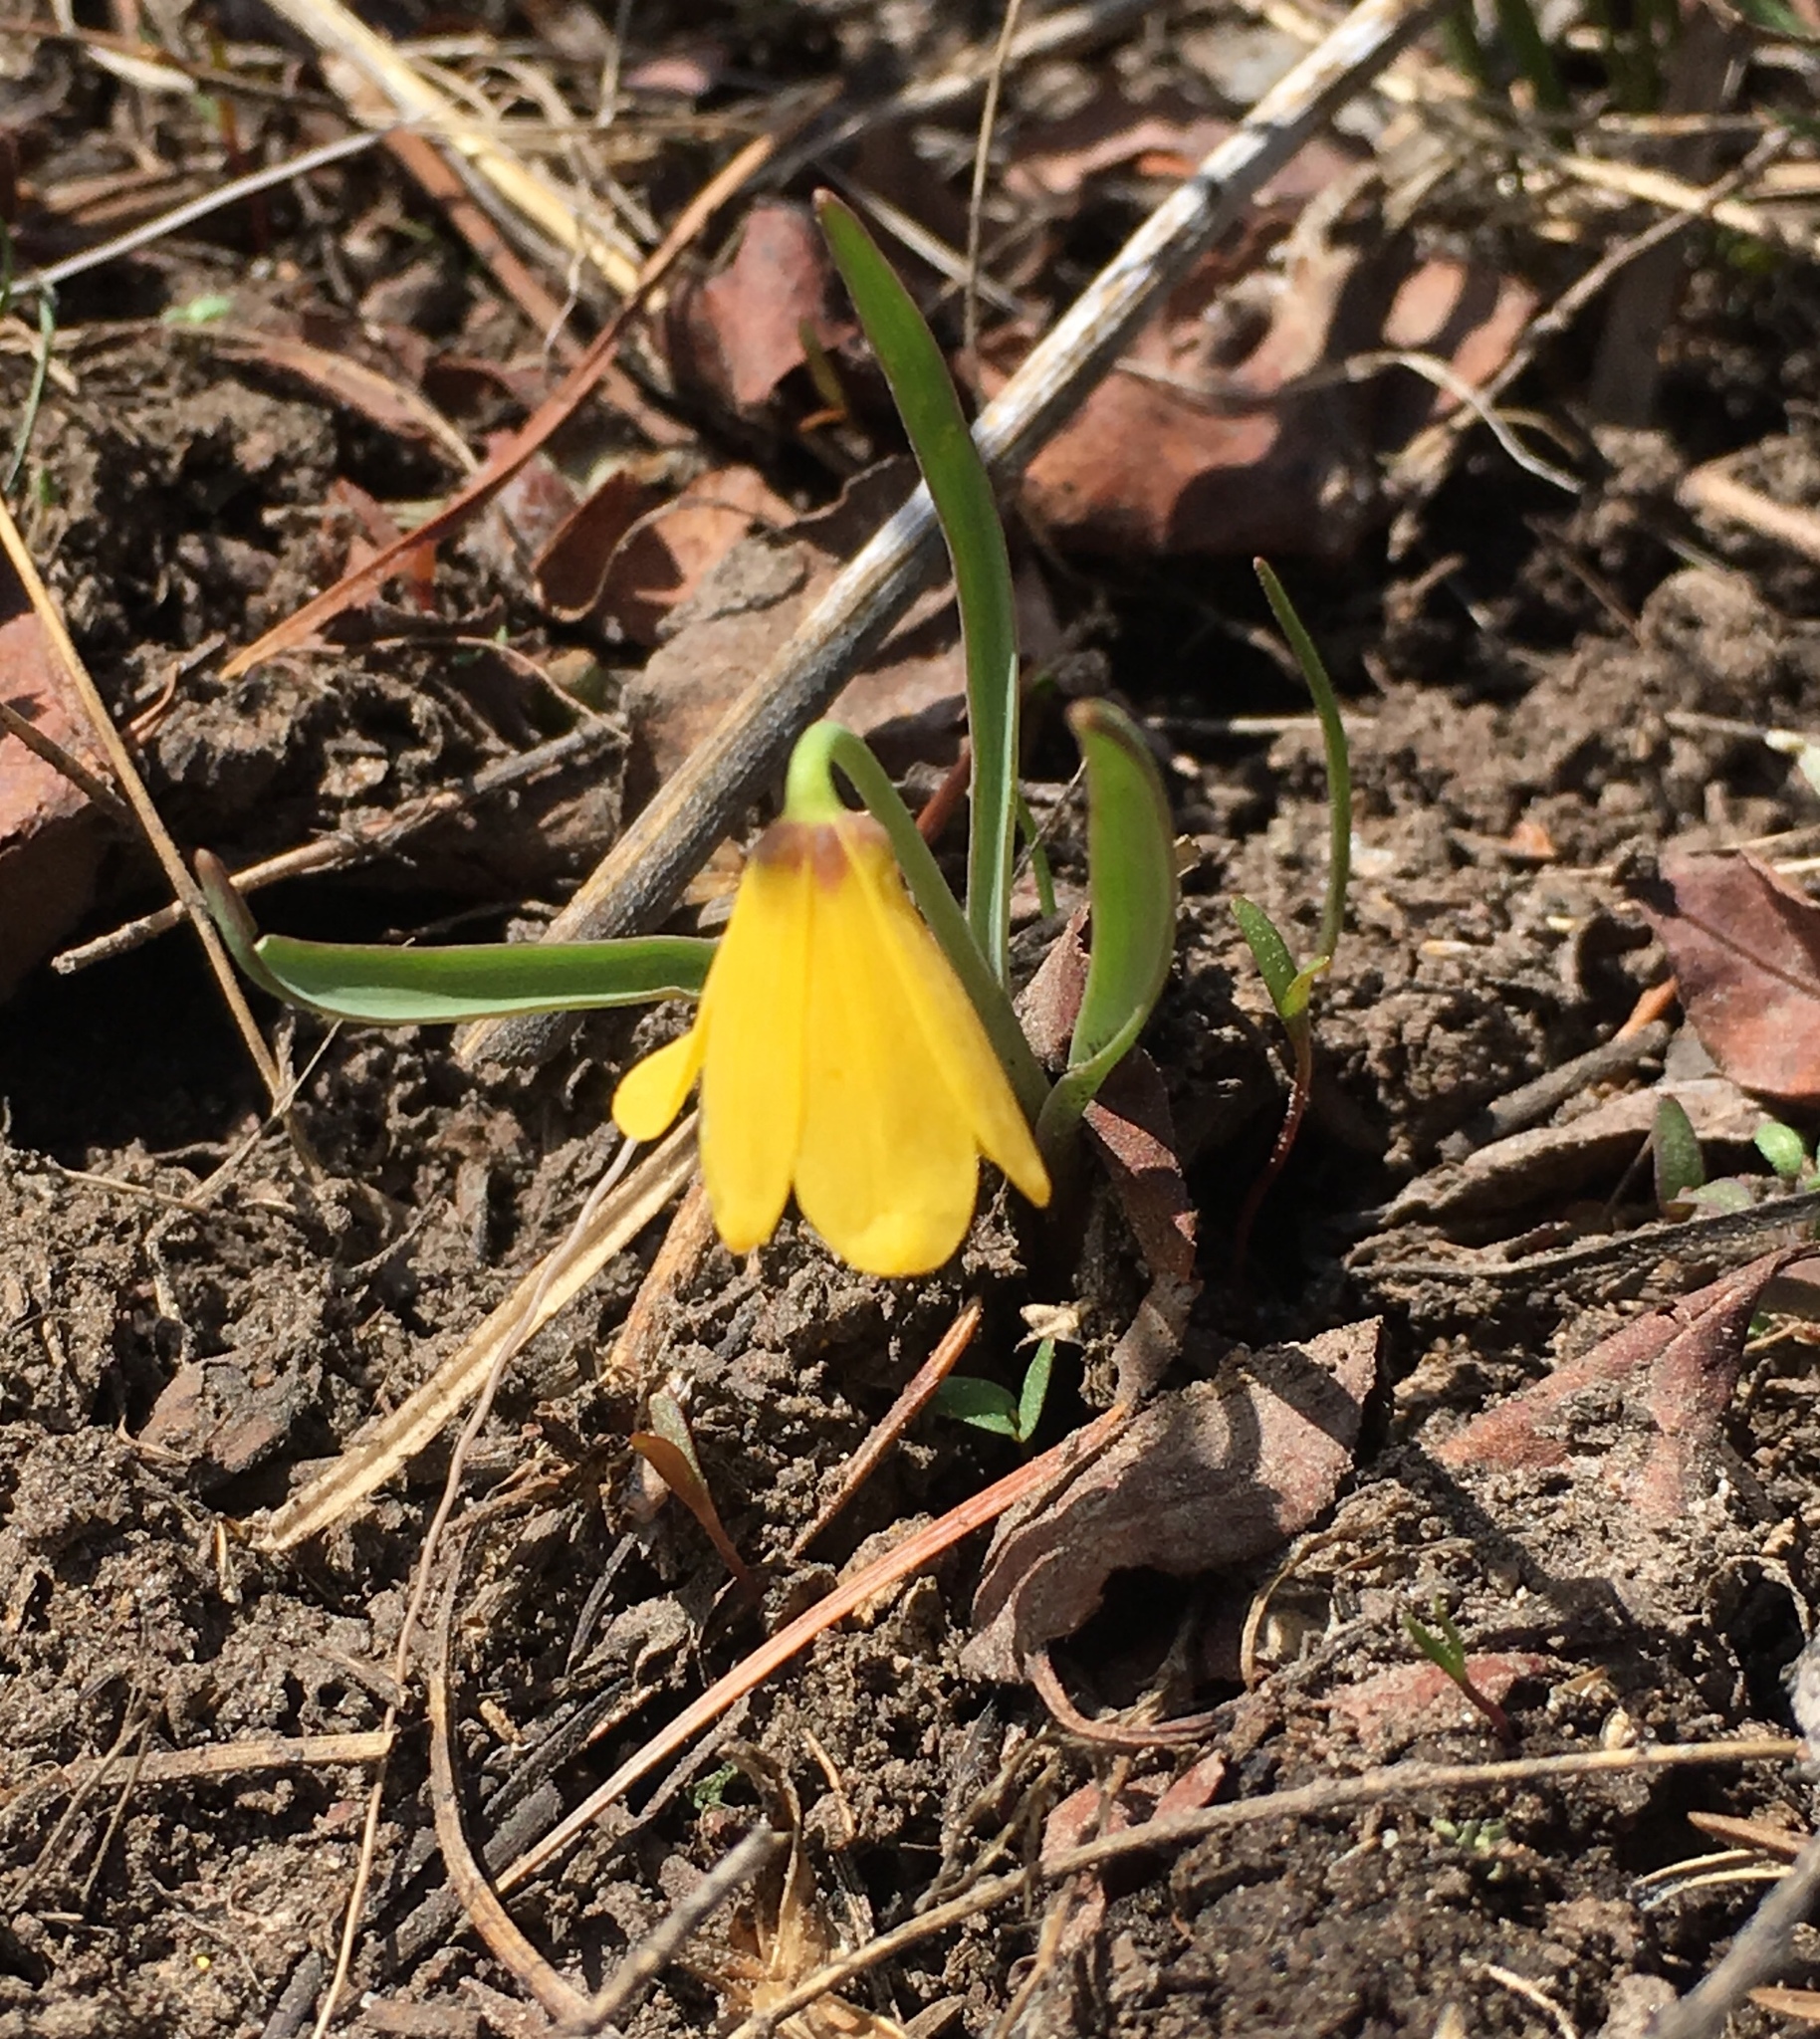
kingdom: Plantae
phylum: Tracheophyta
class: Liliopsida
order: Liliales
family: Liliaceae
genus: Fritillaria
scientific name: Fritillaria pudica
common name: Yellow fritillary
